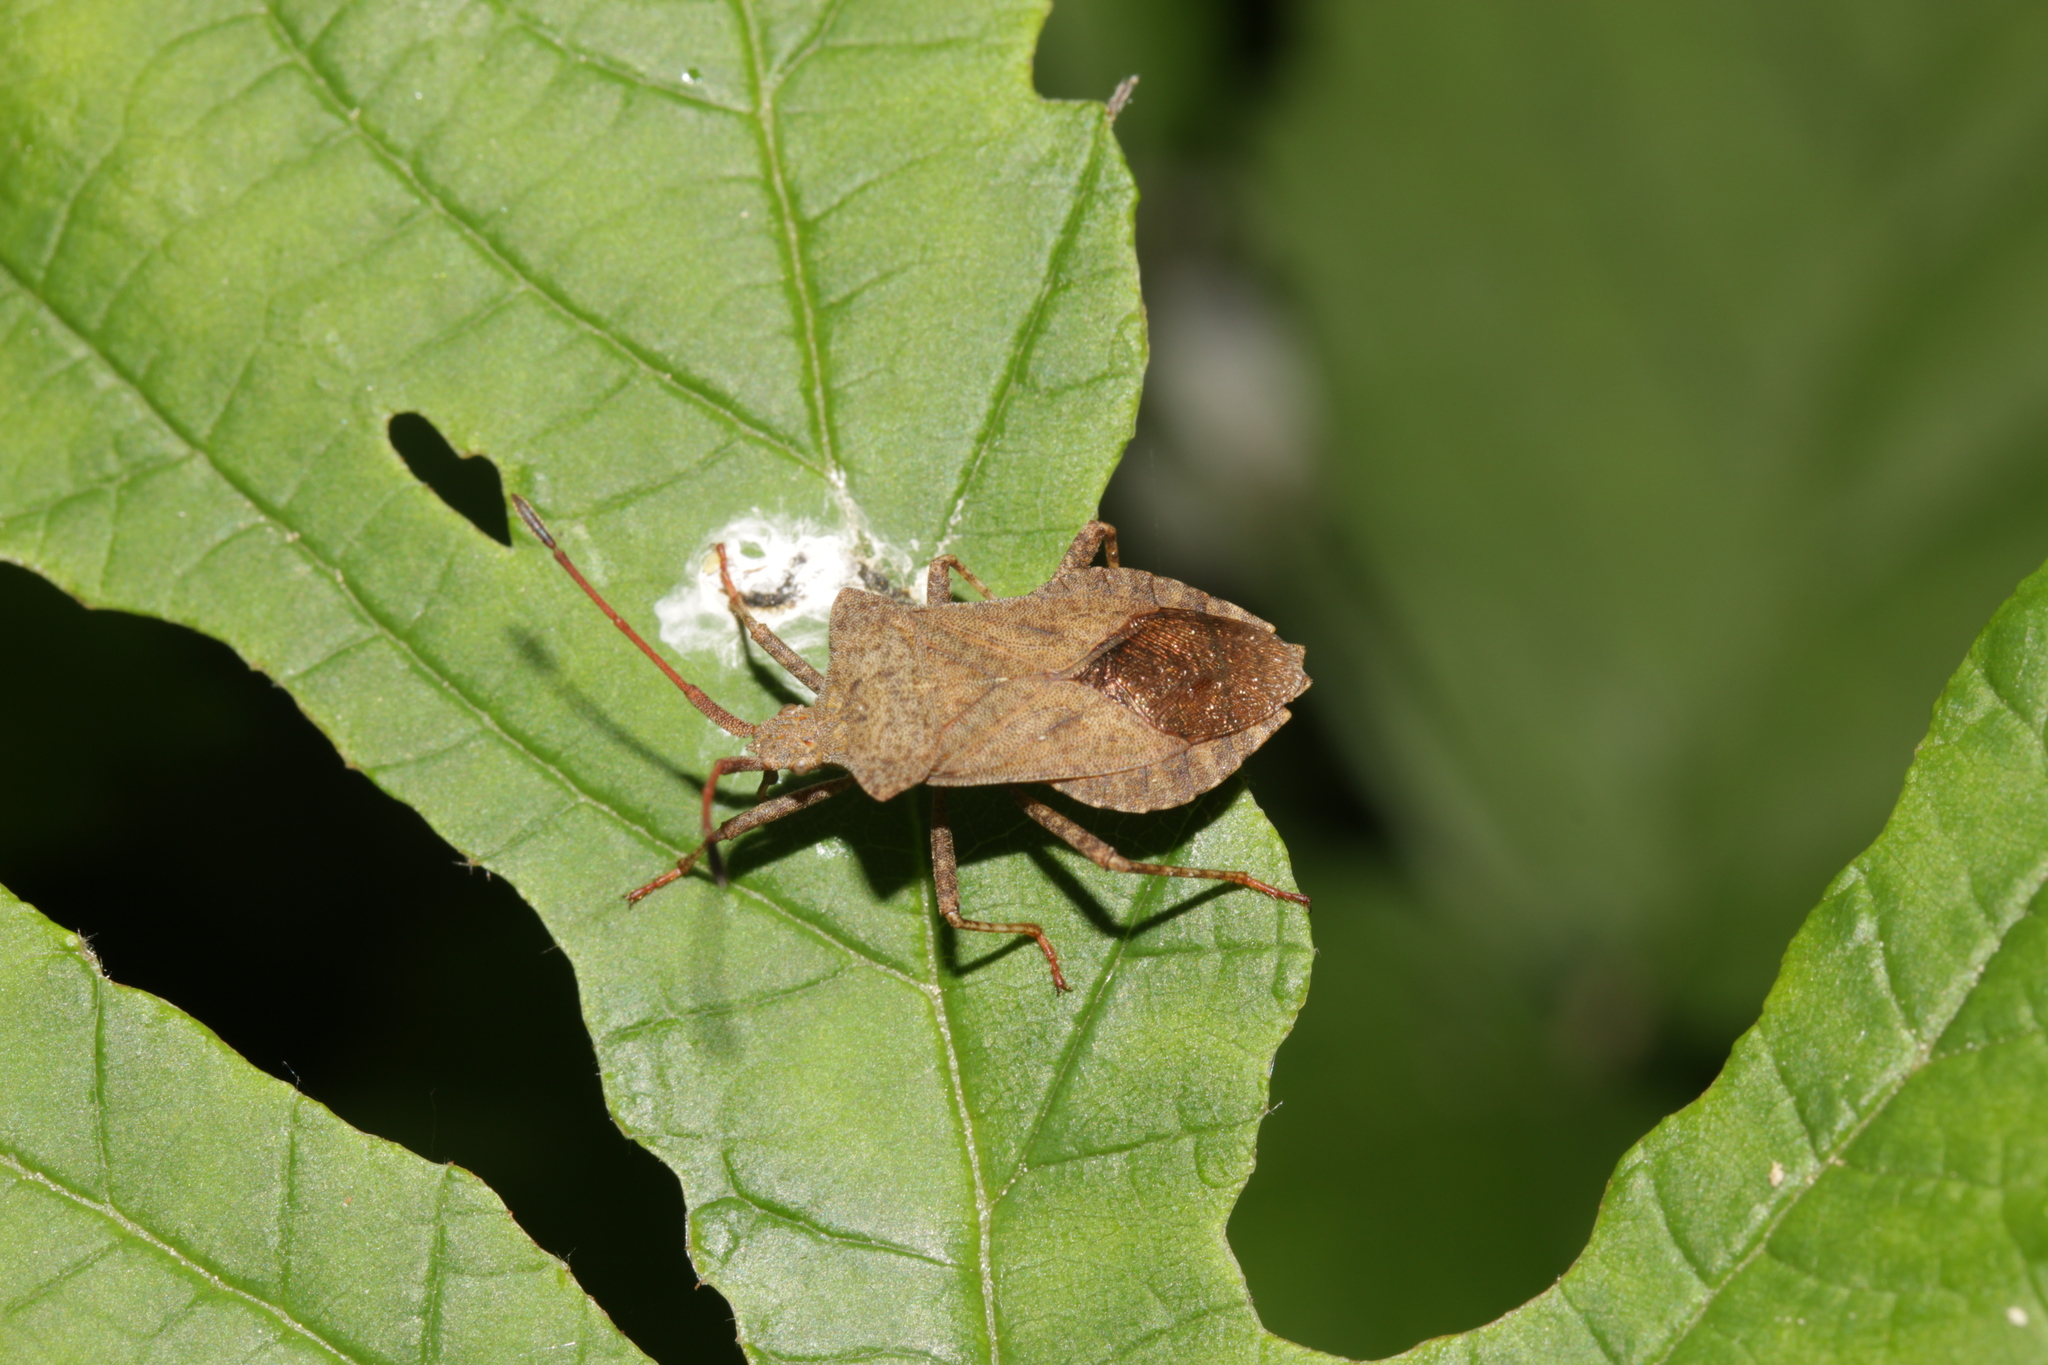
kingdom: Animalia
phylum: Arthropoda
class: Insecta
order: Hemiptera
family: Coreidae
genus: Coreus
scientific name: Coreus marginatus
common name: Dock bug
